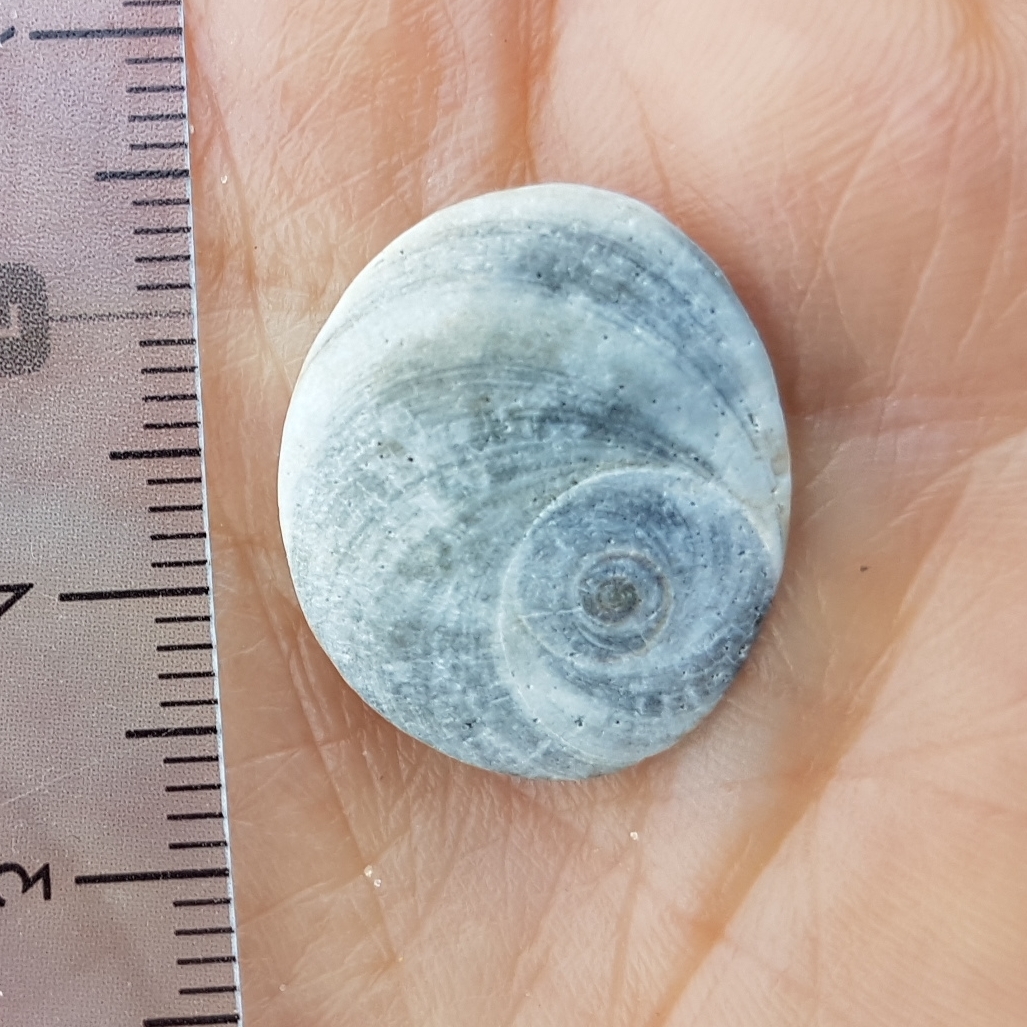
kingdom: Animalia
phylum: Mollusca
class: Gastropoda
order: Trochida
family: Turbinidae
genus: Bolma
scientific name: Bolma rugosa
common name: Rough star shell
